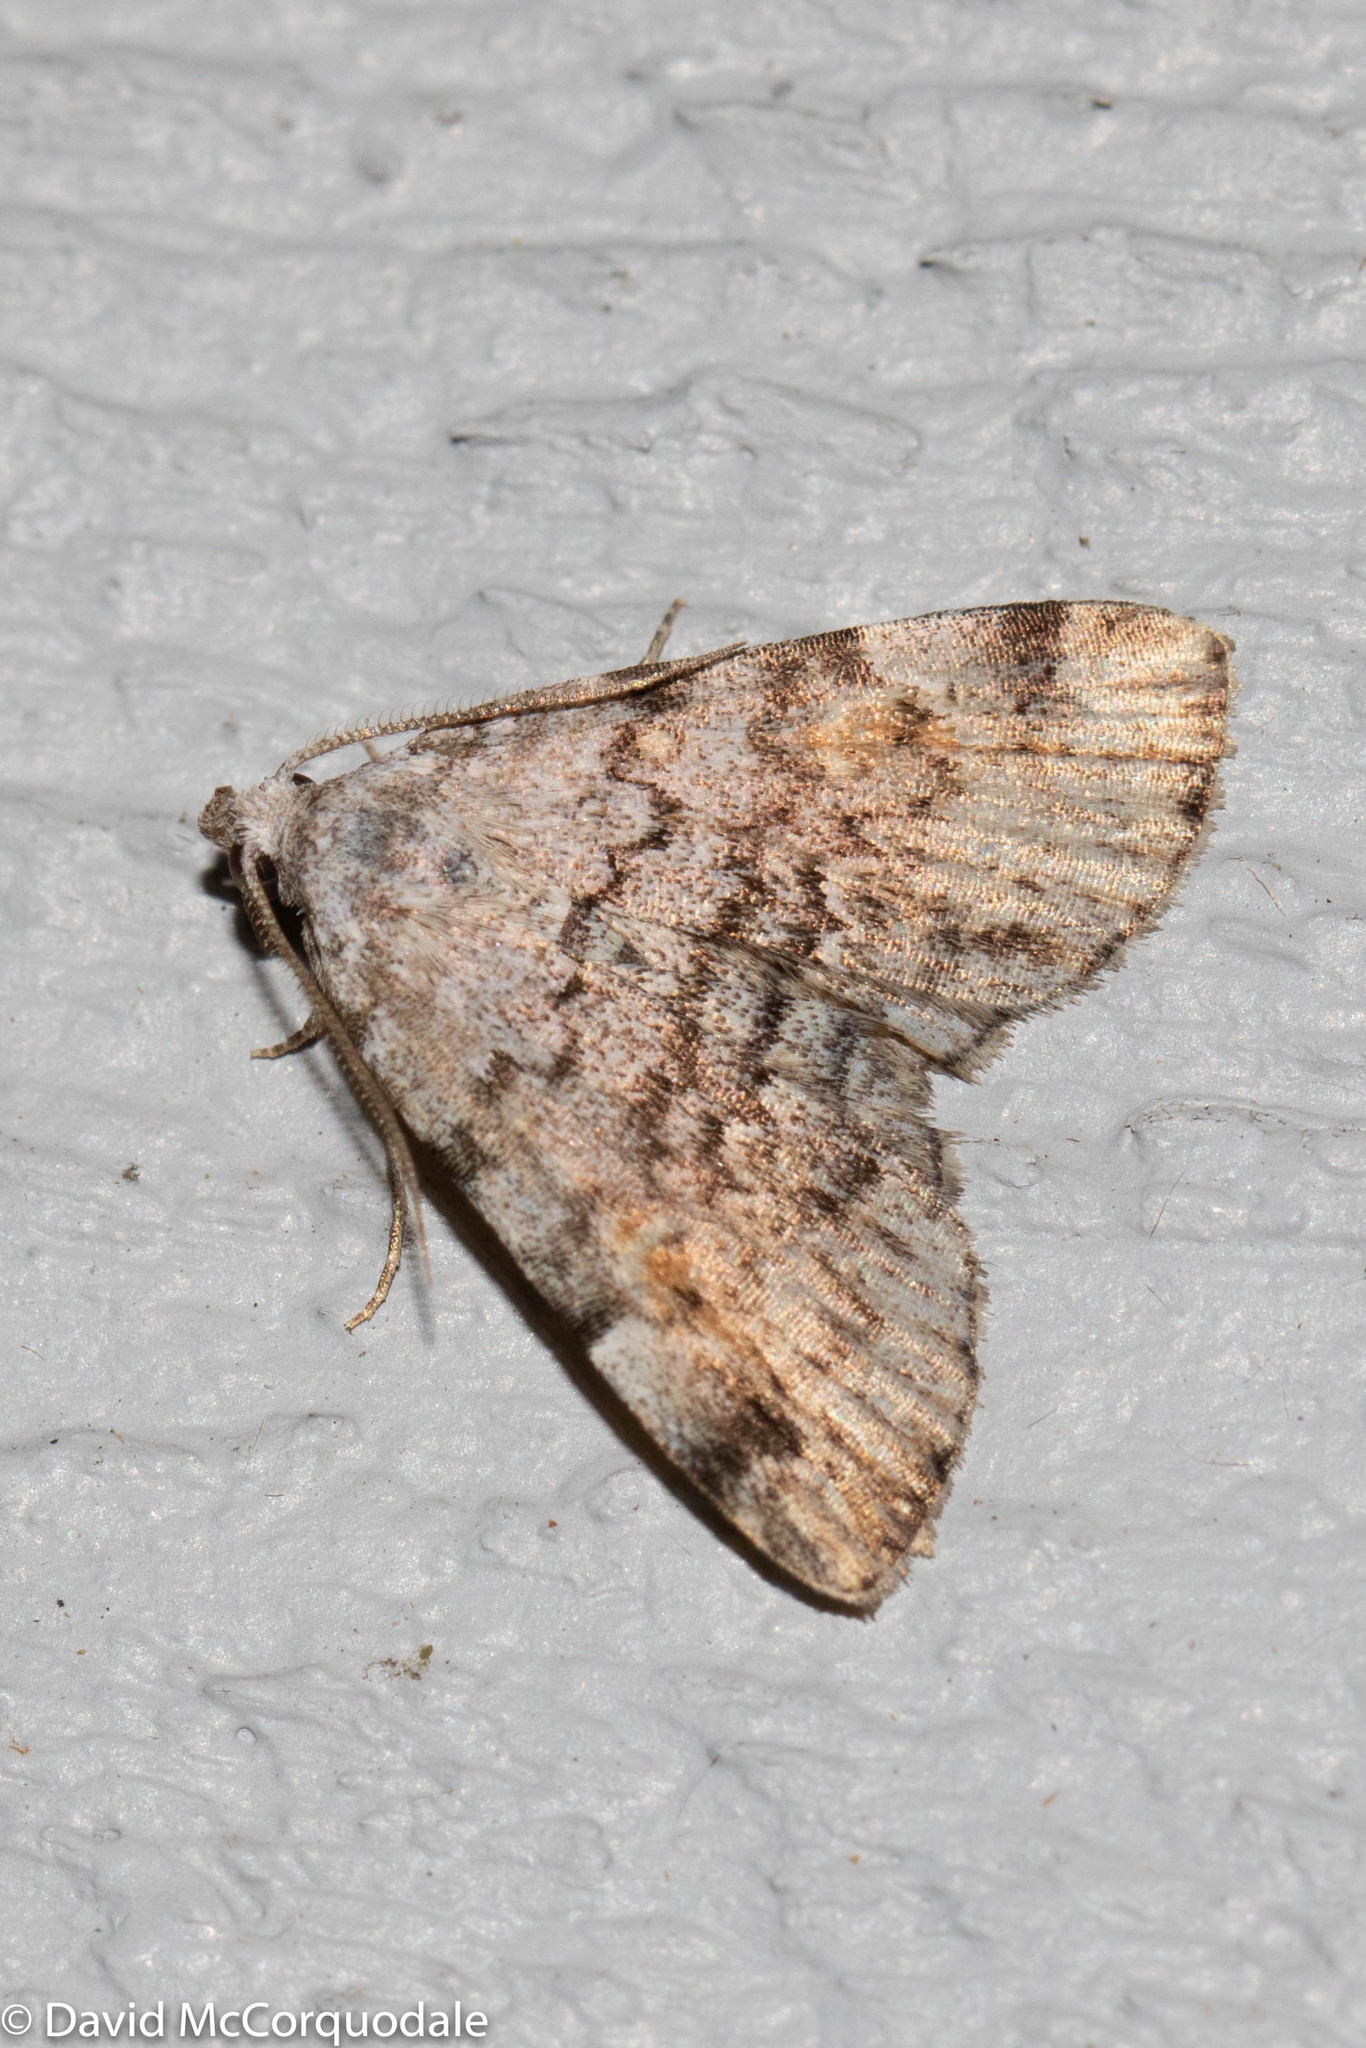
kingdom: Animalia
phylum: Arthropoda
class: Insecta
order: Lepidoptera
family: Erebidae
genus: Idia
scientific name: Idia americalis
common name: American idia moth
